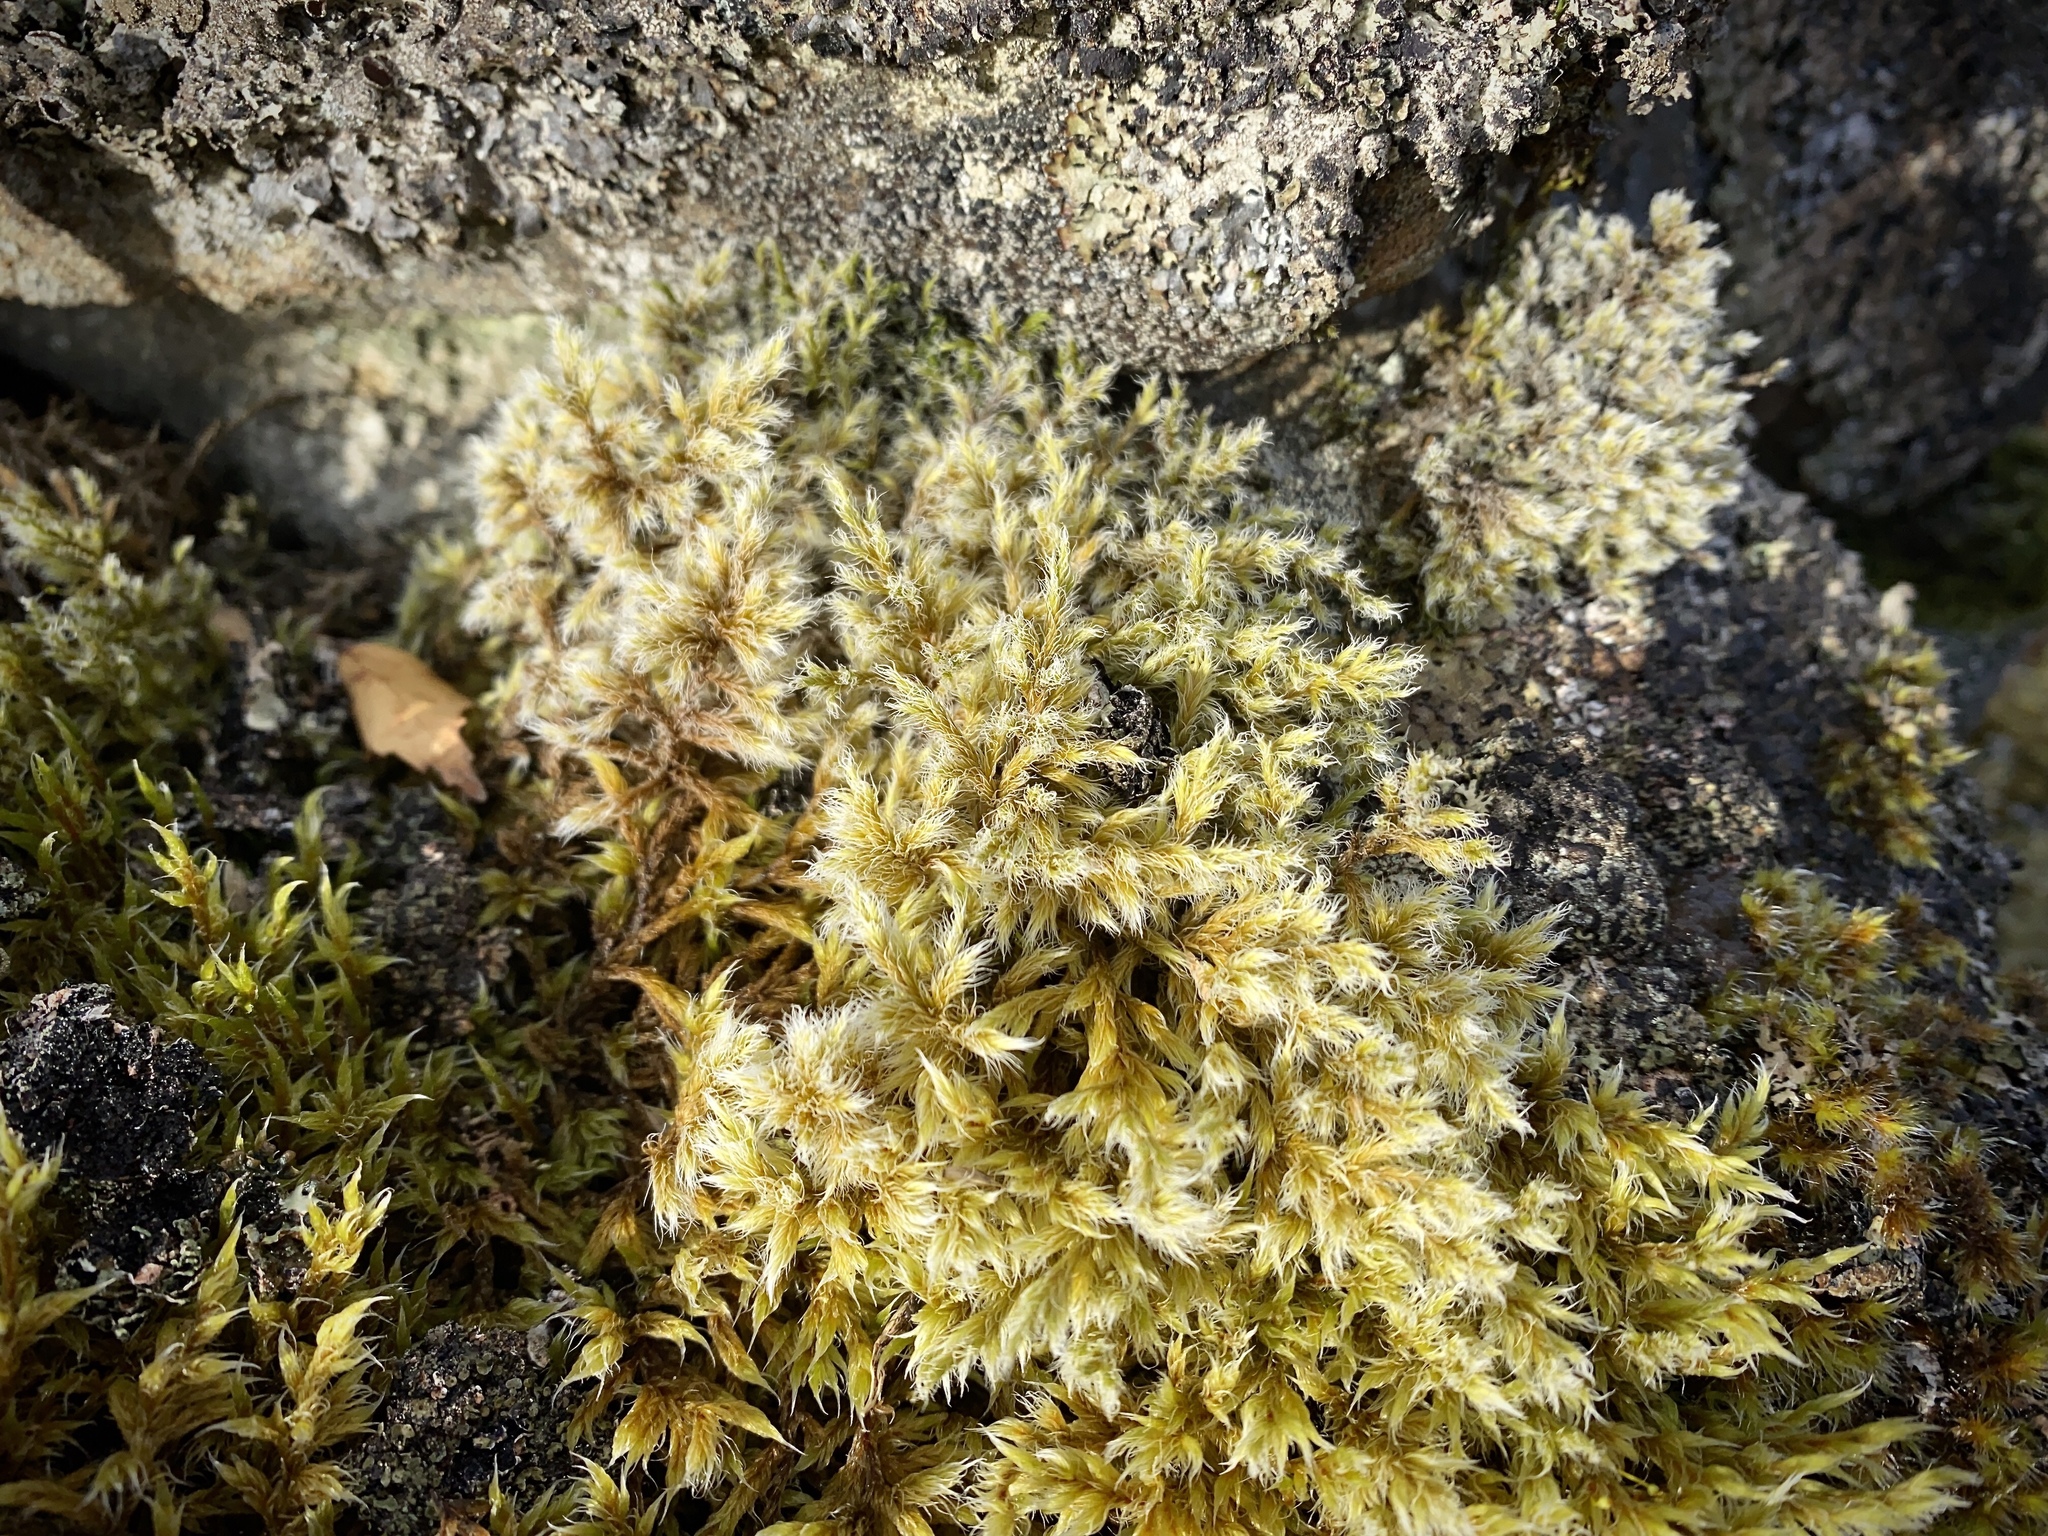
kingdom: Plantae
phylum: Bryophyta
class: Bryopsida
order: Grimmiales
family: Grimmiaceae
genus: Racomitrium
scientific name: Racomitrium lanuginosum
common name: Hoary rock moss
